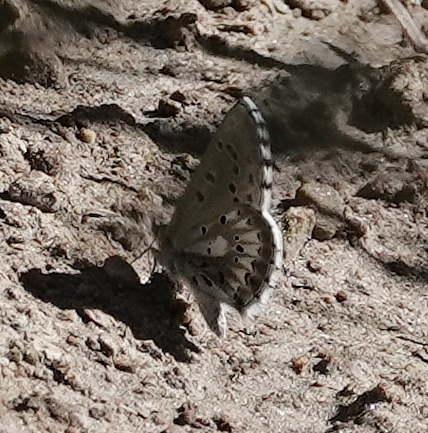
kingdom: Animalia
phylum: Arthropoda
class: Insecta
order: Lepidoptera
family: Lycaenidae
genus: Glaucopsyche
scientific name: Glaucopsyche piasus
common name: Arrowhead blue
